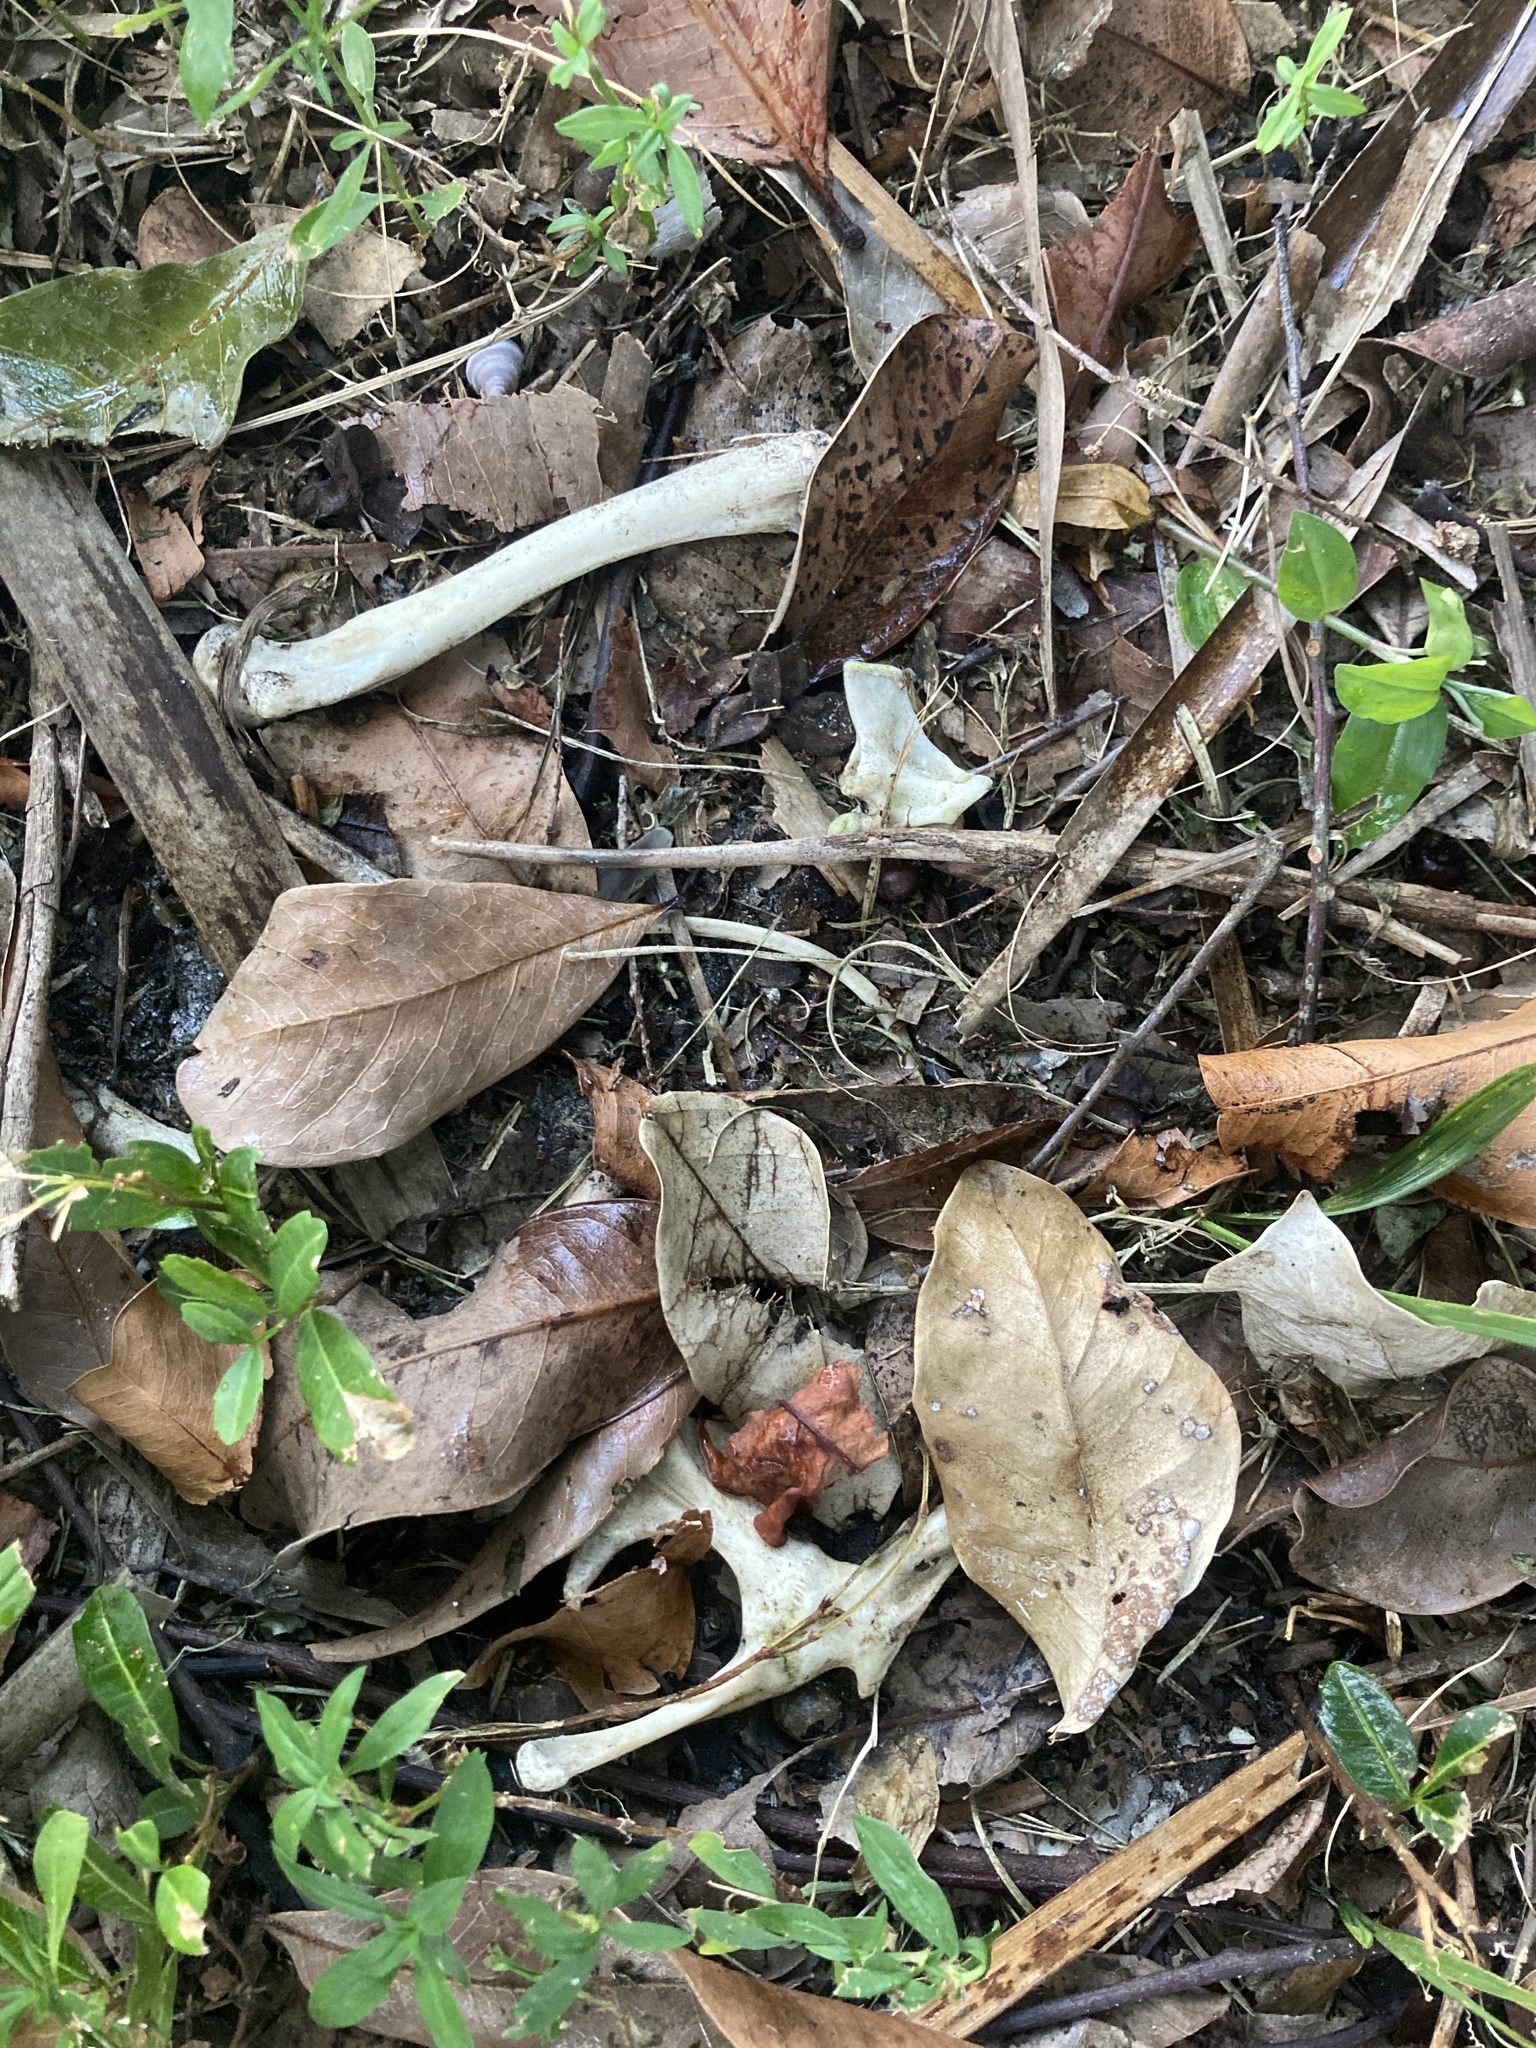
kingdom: Animalia
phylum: Chordata
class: Squamata
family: Iguanidae
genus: Iguana
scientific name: Iguana iguana
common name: Green iguana
